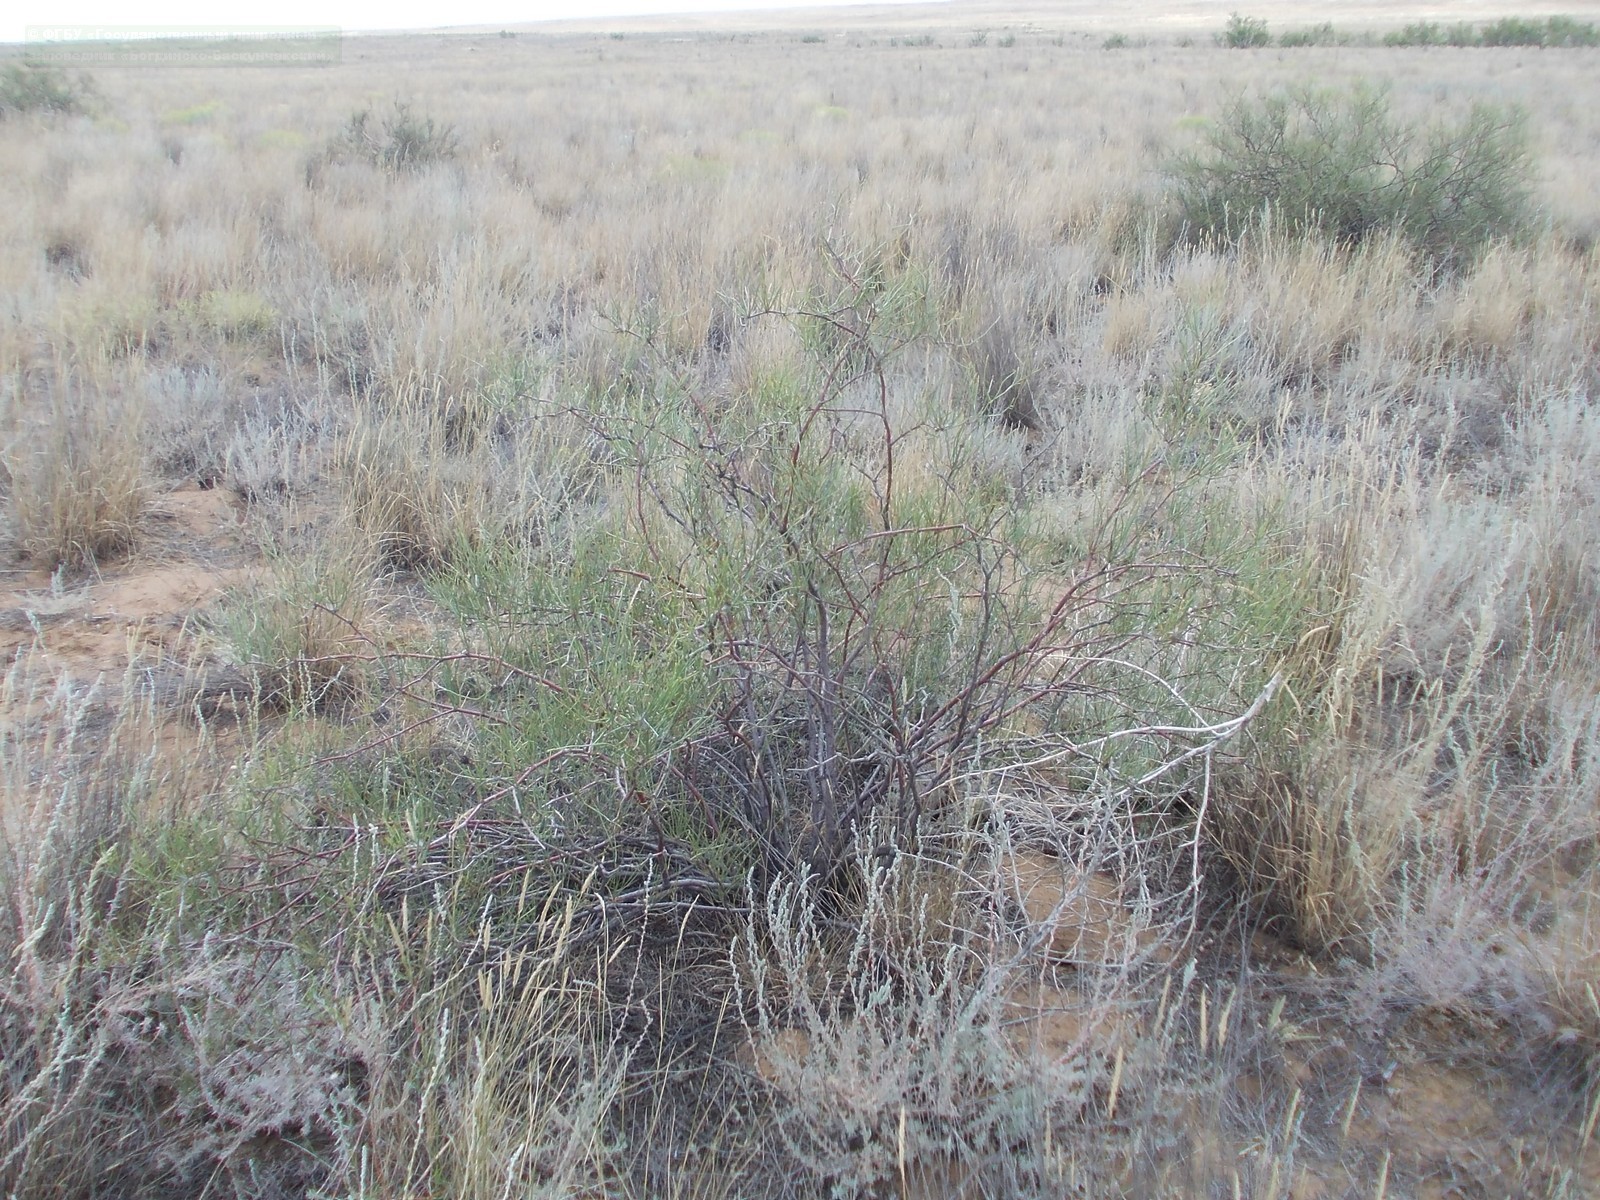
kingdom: Plantae
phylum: Tracheophyta
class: Magnoliopsida
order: Caryophyllales
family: Polygonaceae
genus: Calligonum
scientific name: Calligonum aphyllum
